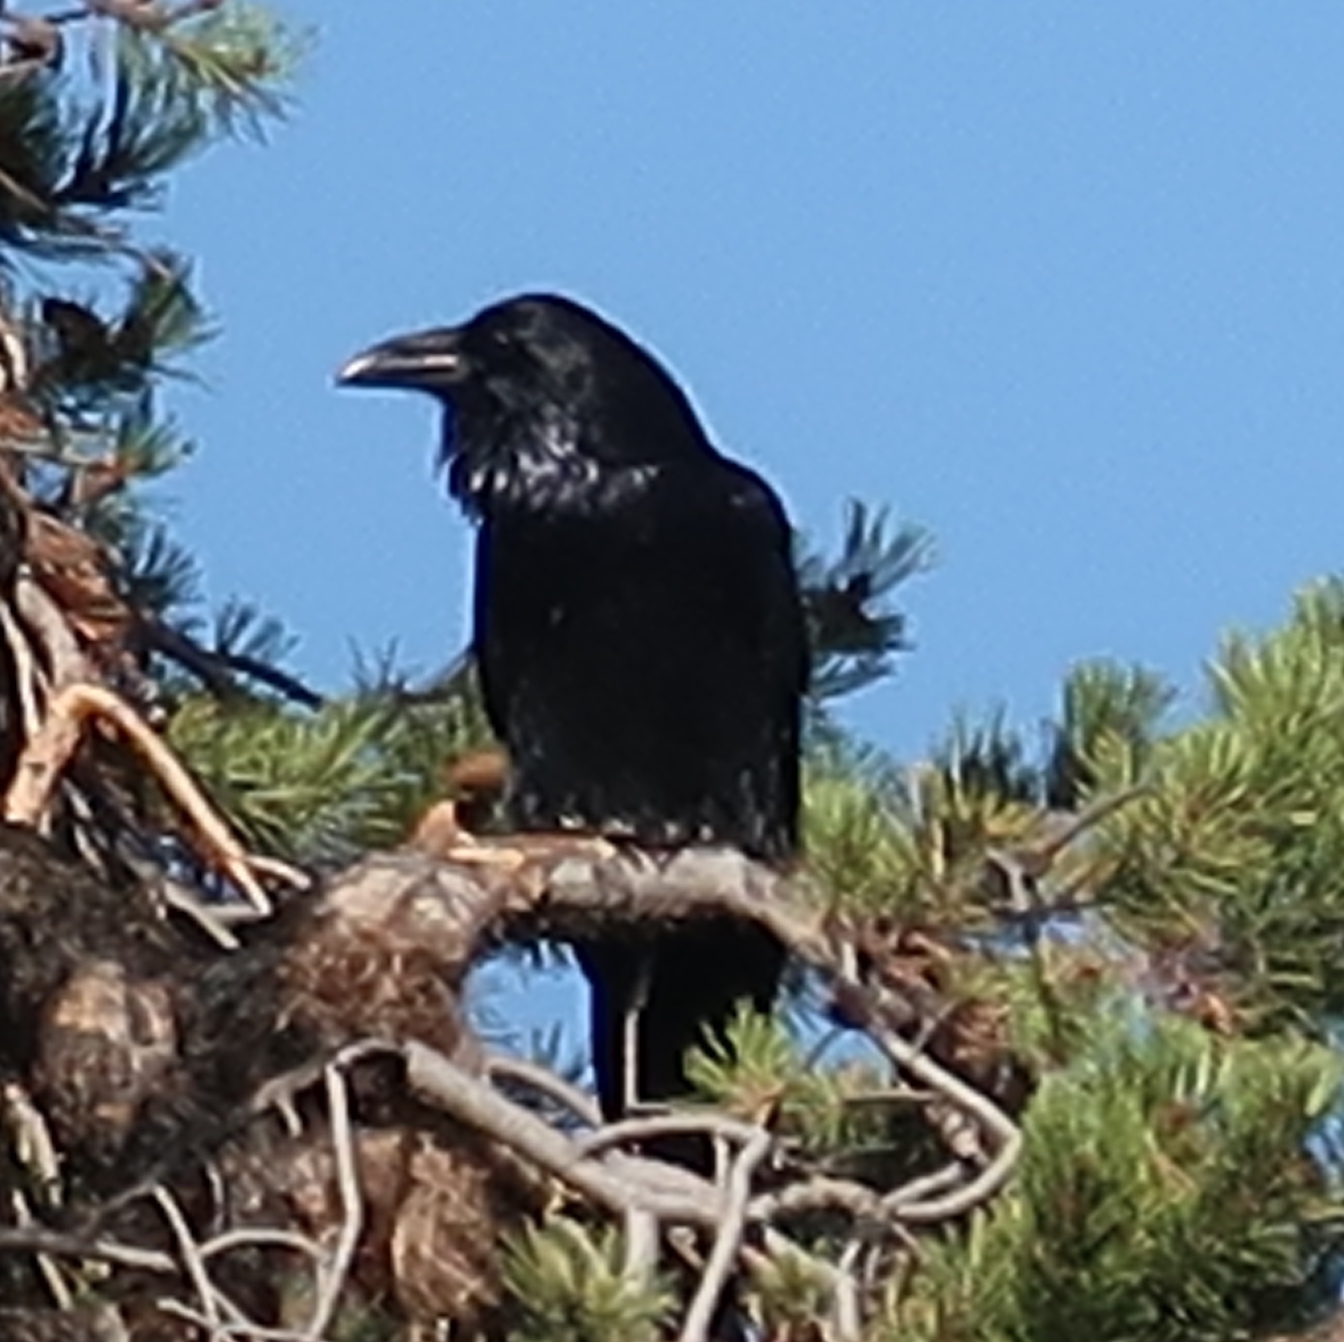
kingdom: Animalia
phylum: Chordata
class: Aves
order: Passeriformes
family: Corvidae
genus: Corvus
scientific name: Corvus corax
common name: Common raven
